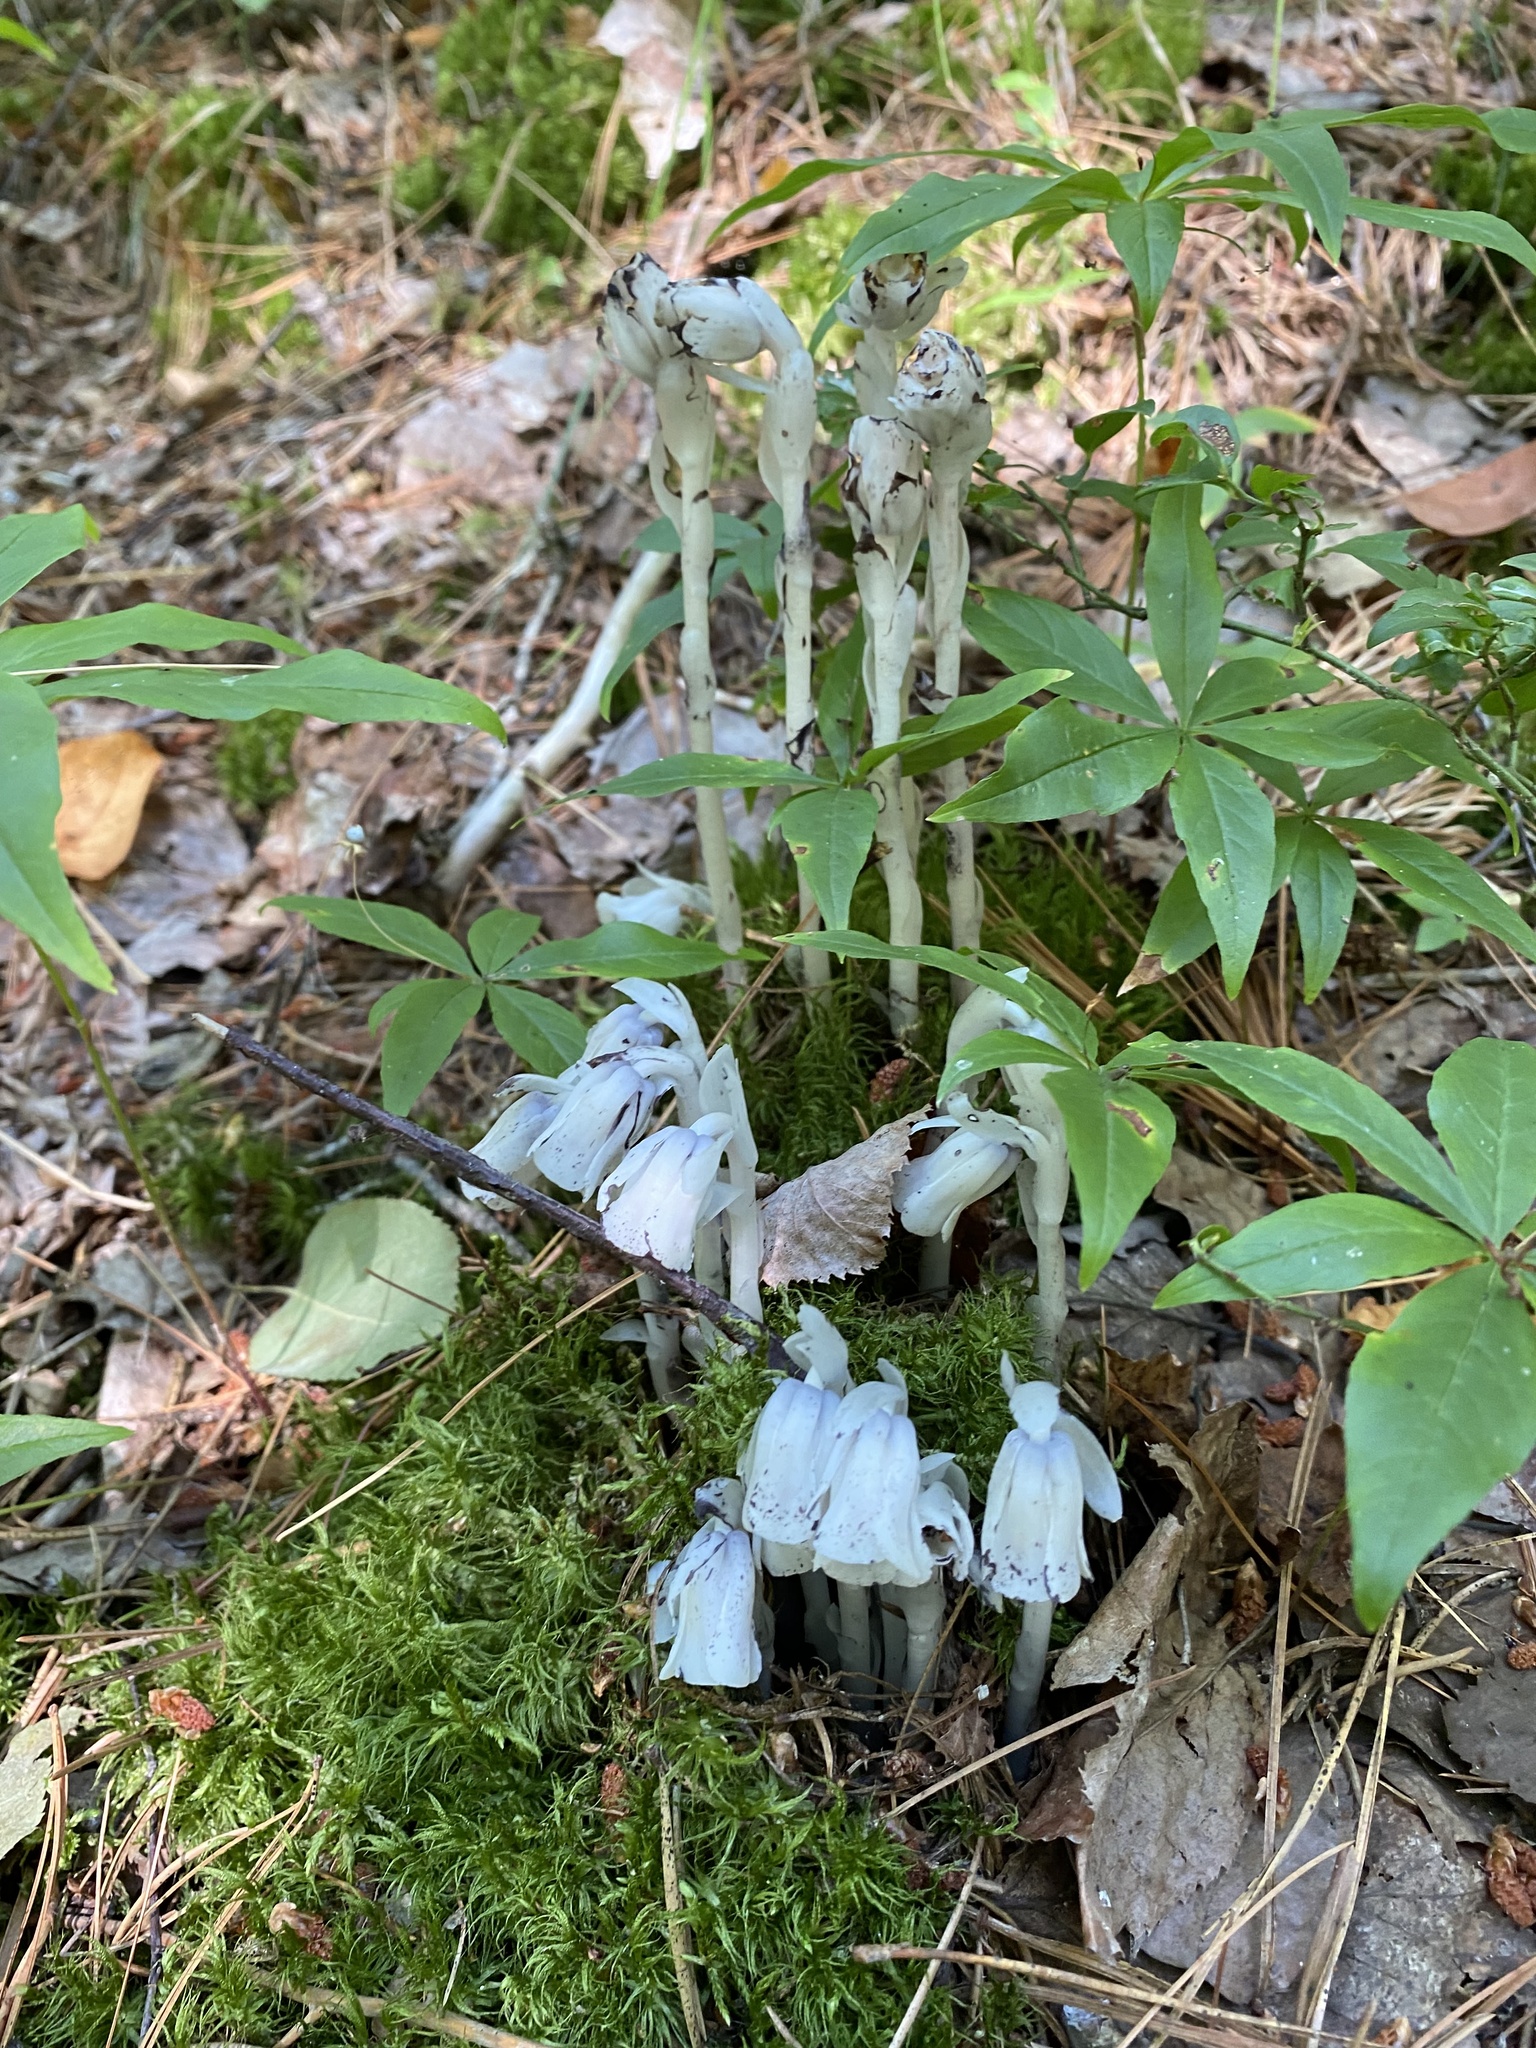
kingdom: Plantae
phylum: Tracheophyta
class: Magnoliopsida
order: Ericales
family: Ericaceae
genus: Monotropa
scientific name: Monotropa uniflora
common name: Convulsion root
